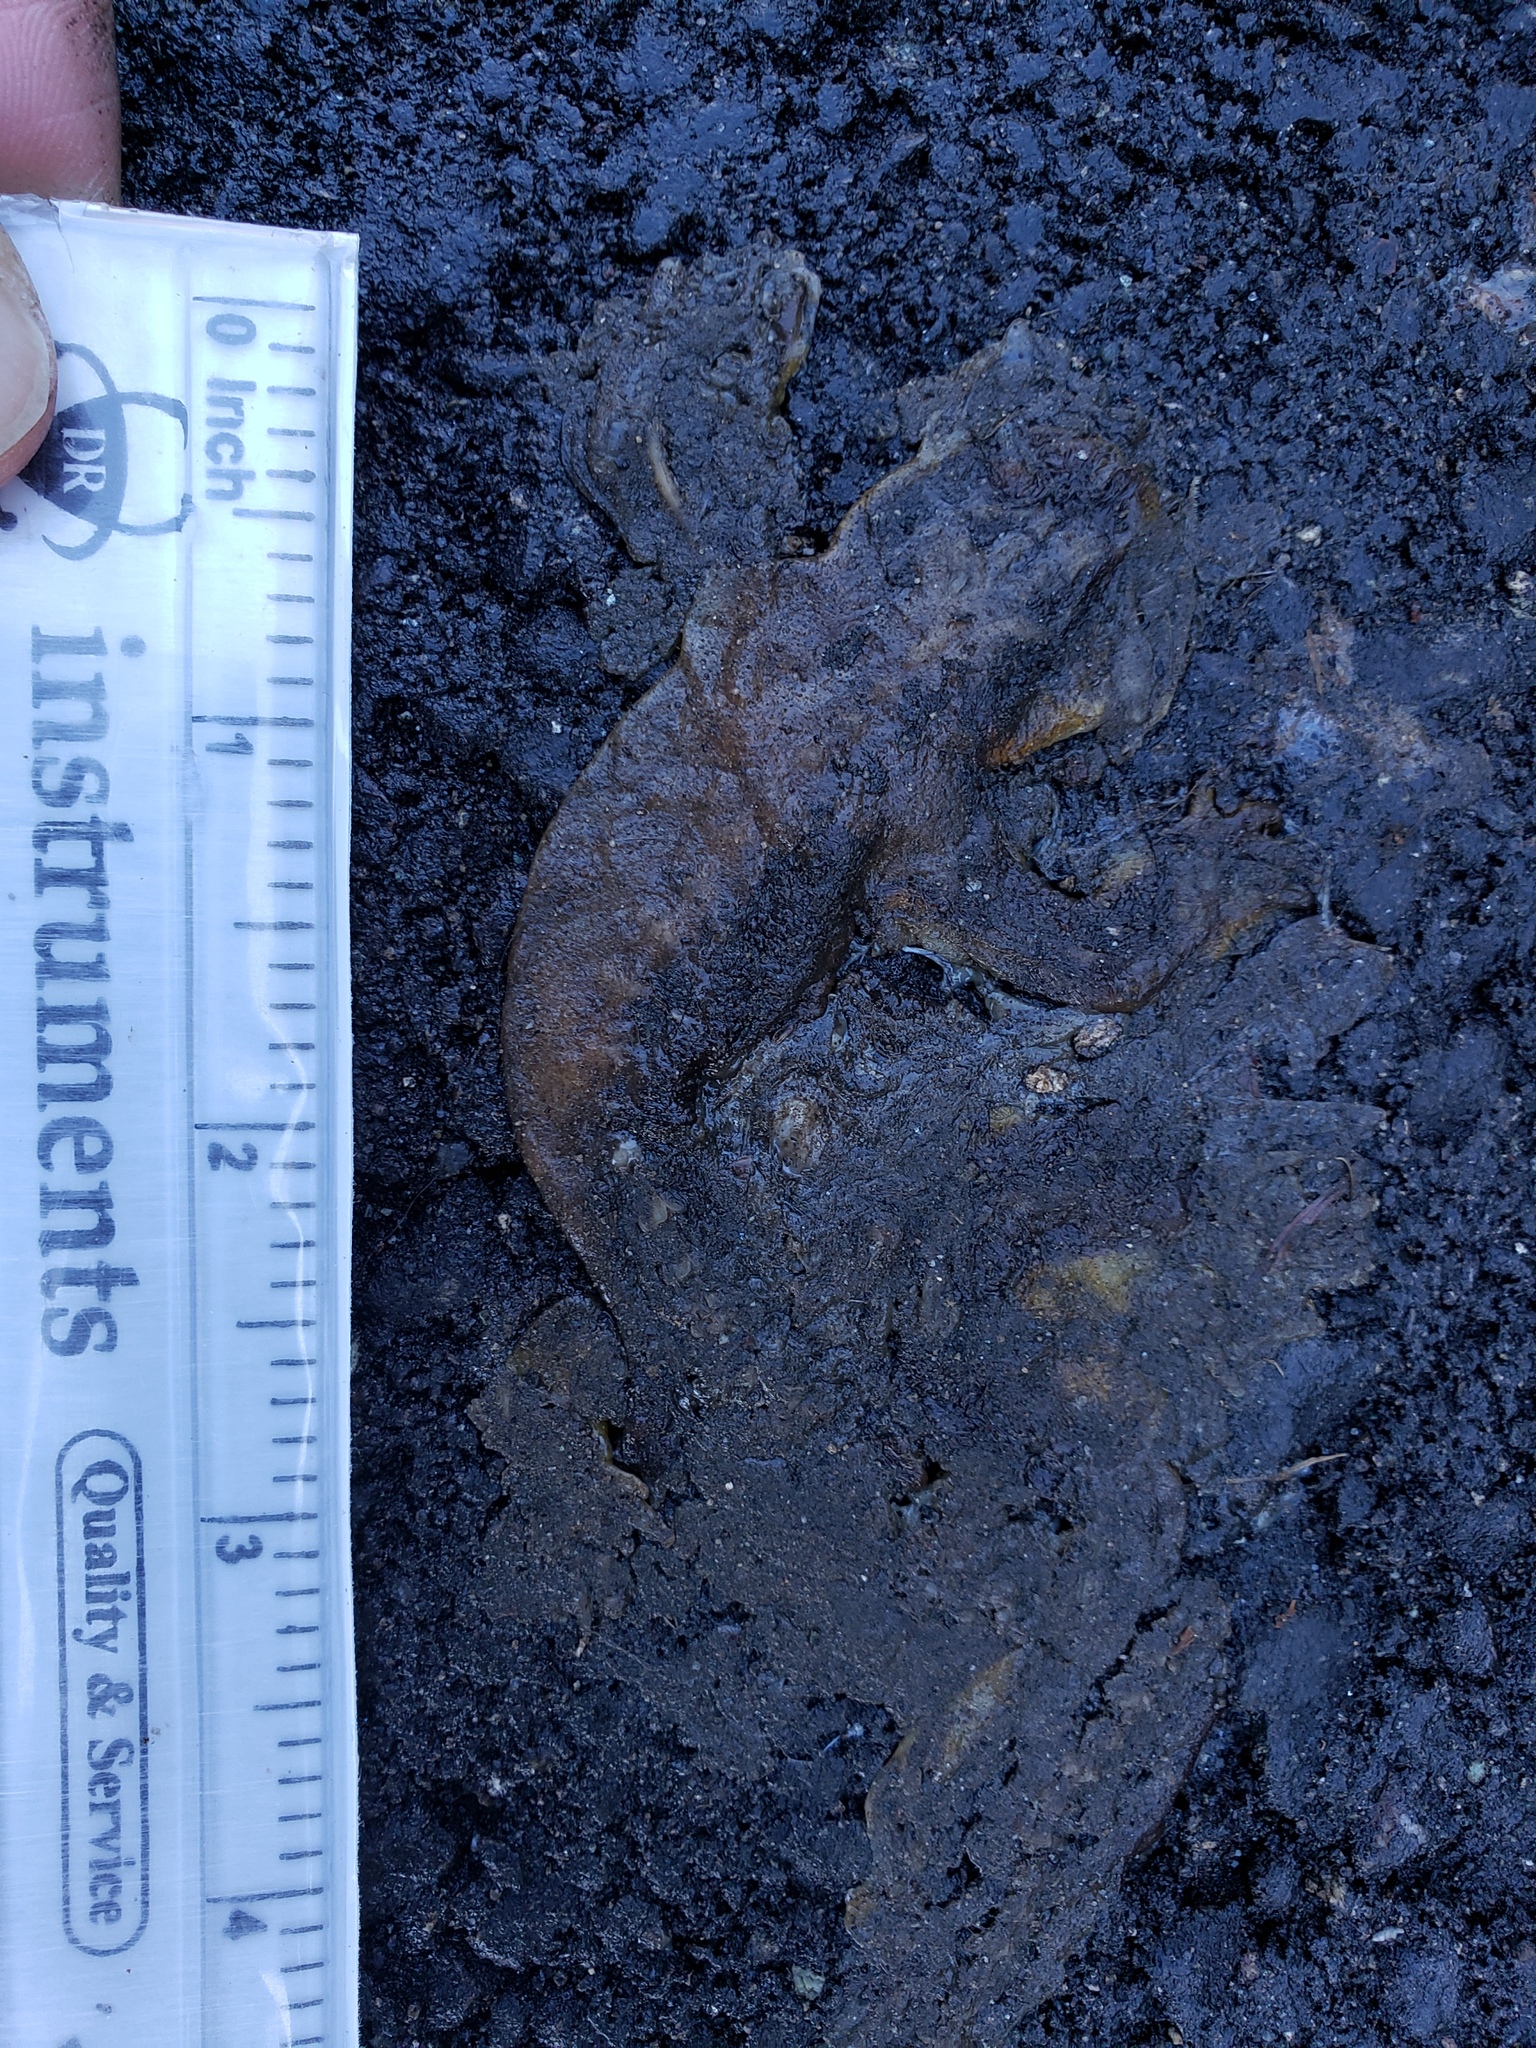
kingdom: Animalia
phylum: Chordata
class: Amphibia
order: Caudata
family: Salamandridae
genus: Taricha
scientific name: Taricha
